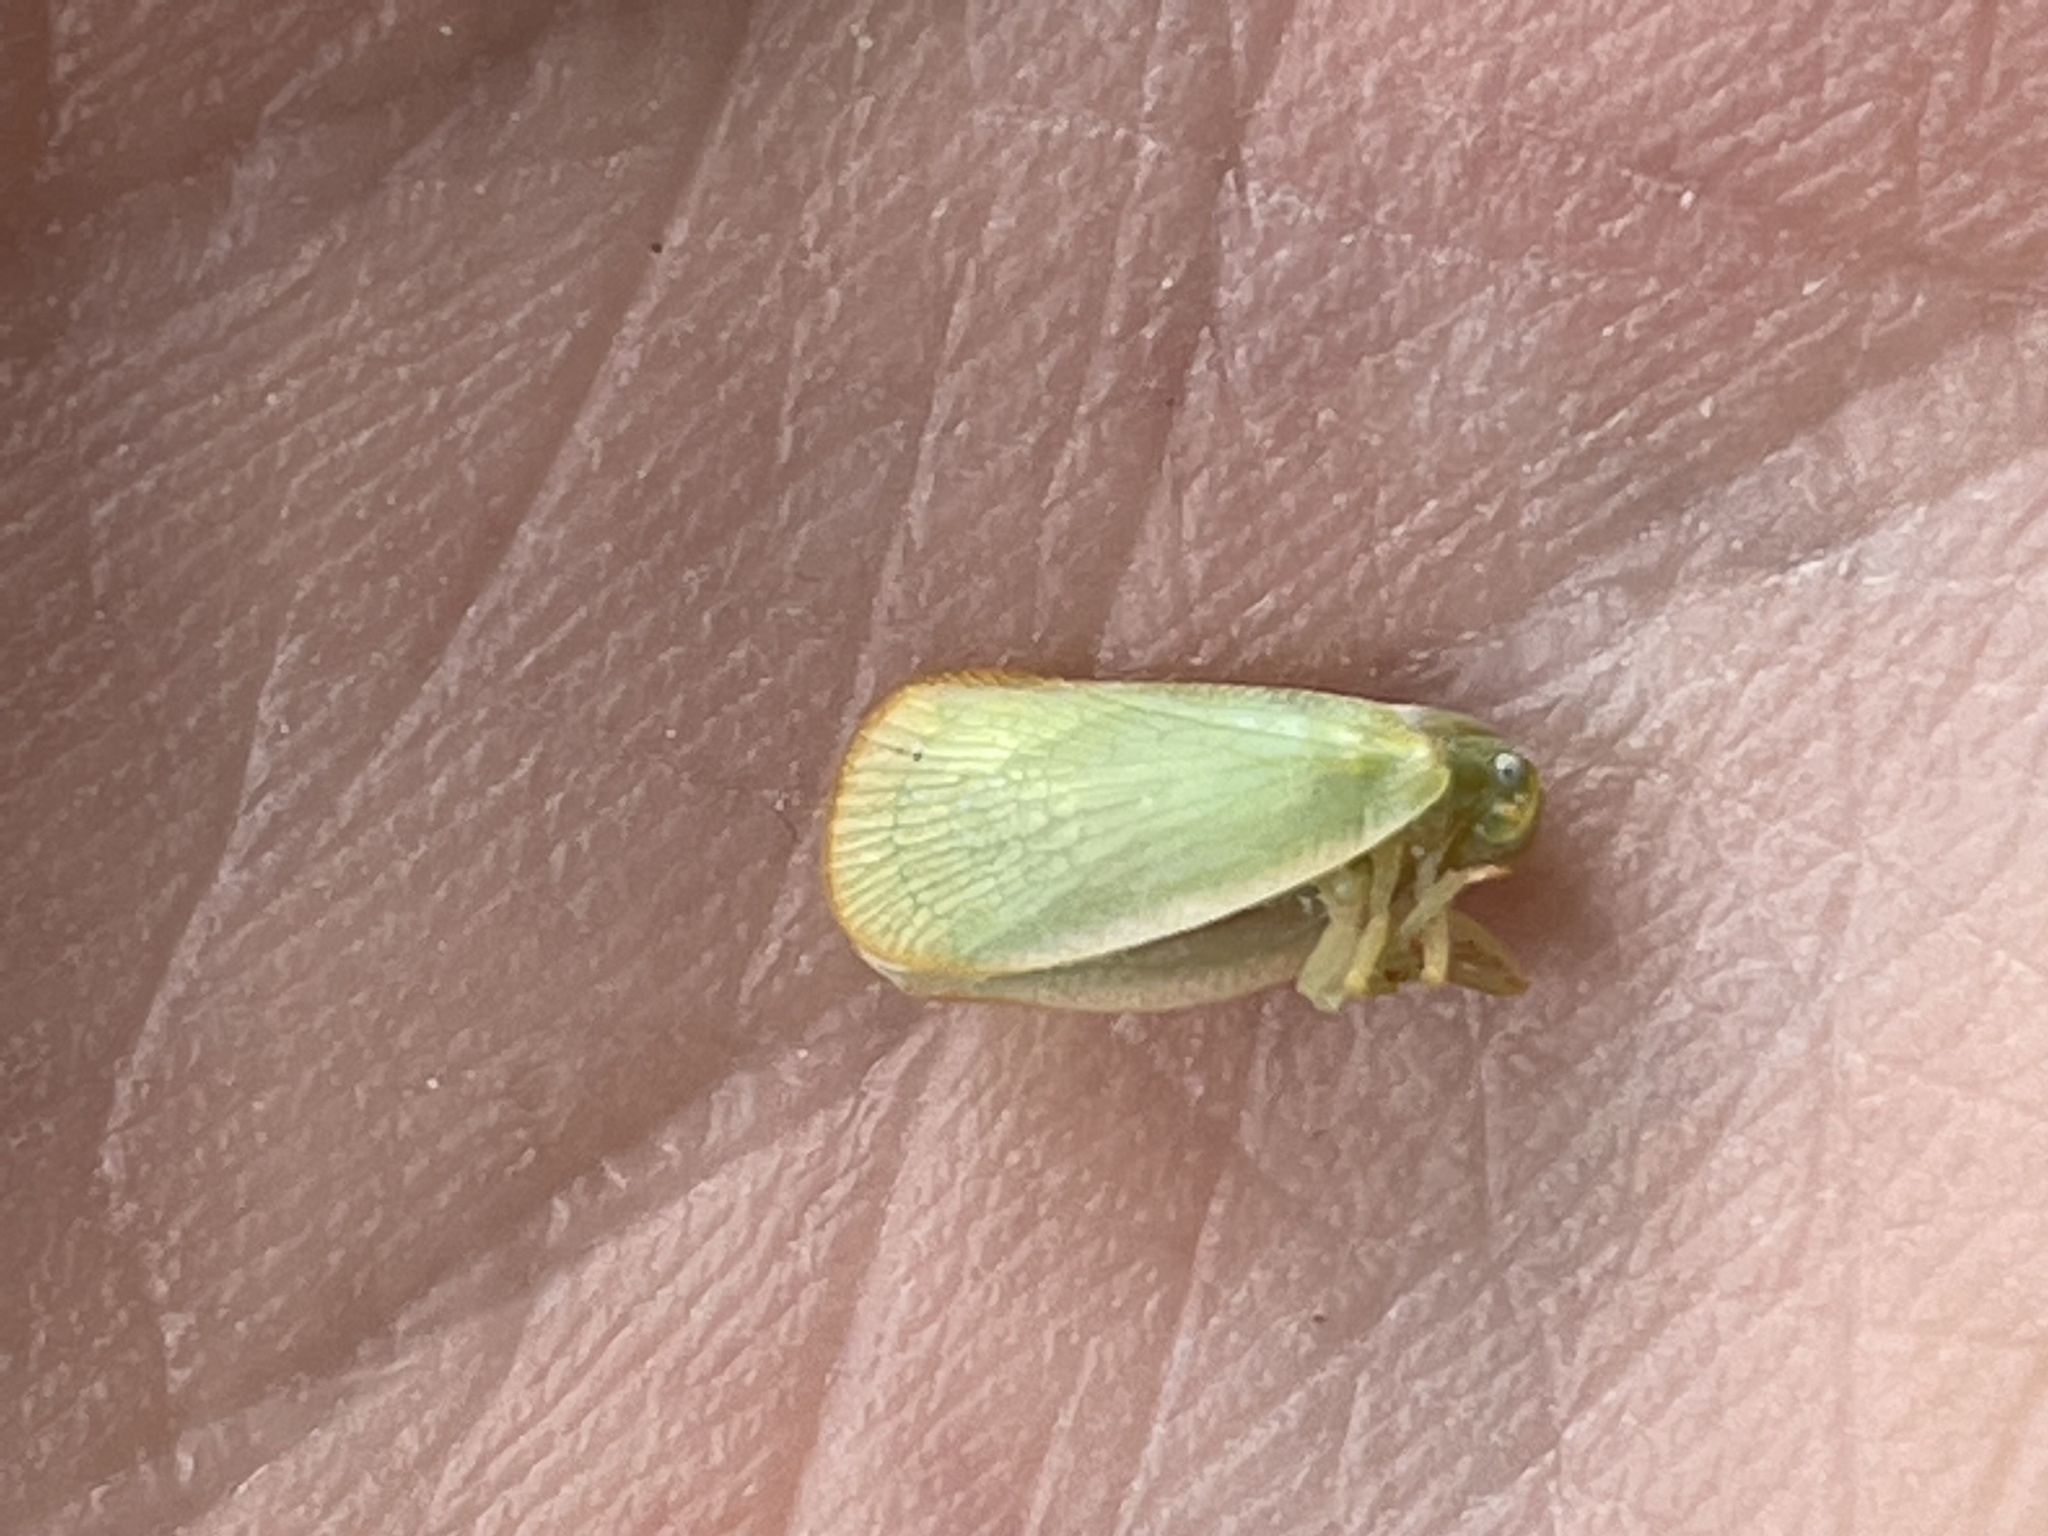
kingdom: Animalia
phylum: Arthropoda
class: Insecta
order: Hemiptera
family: Flatidae
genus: Ormenoides
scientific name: Ormenoides venusta
